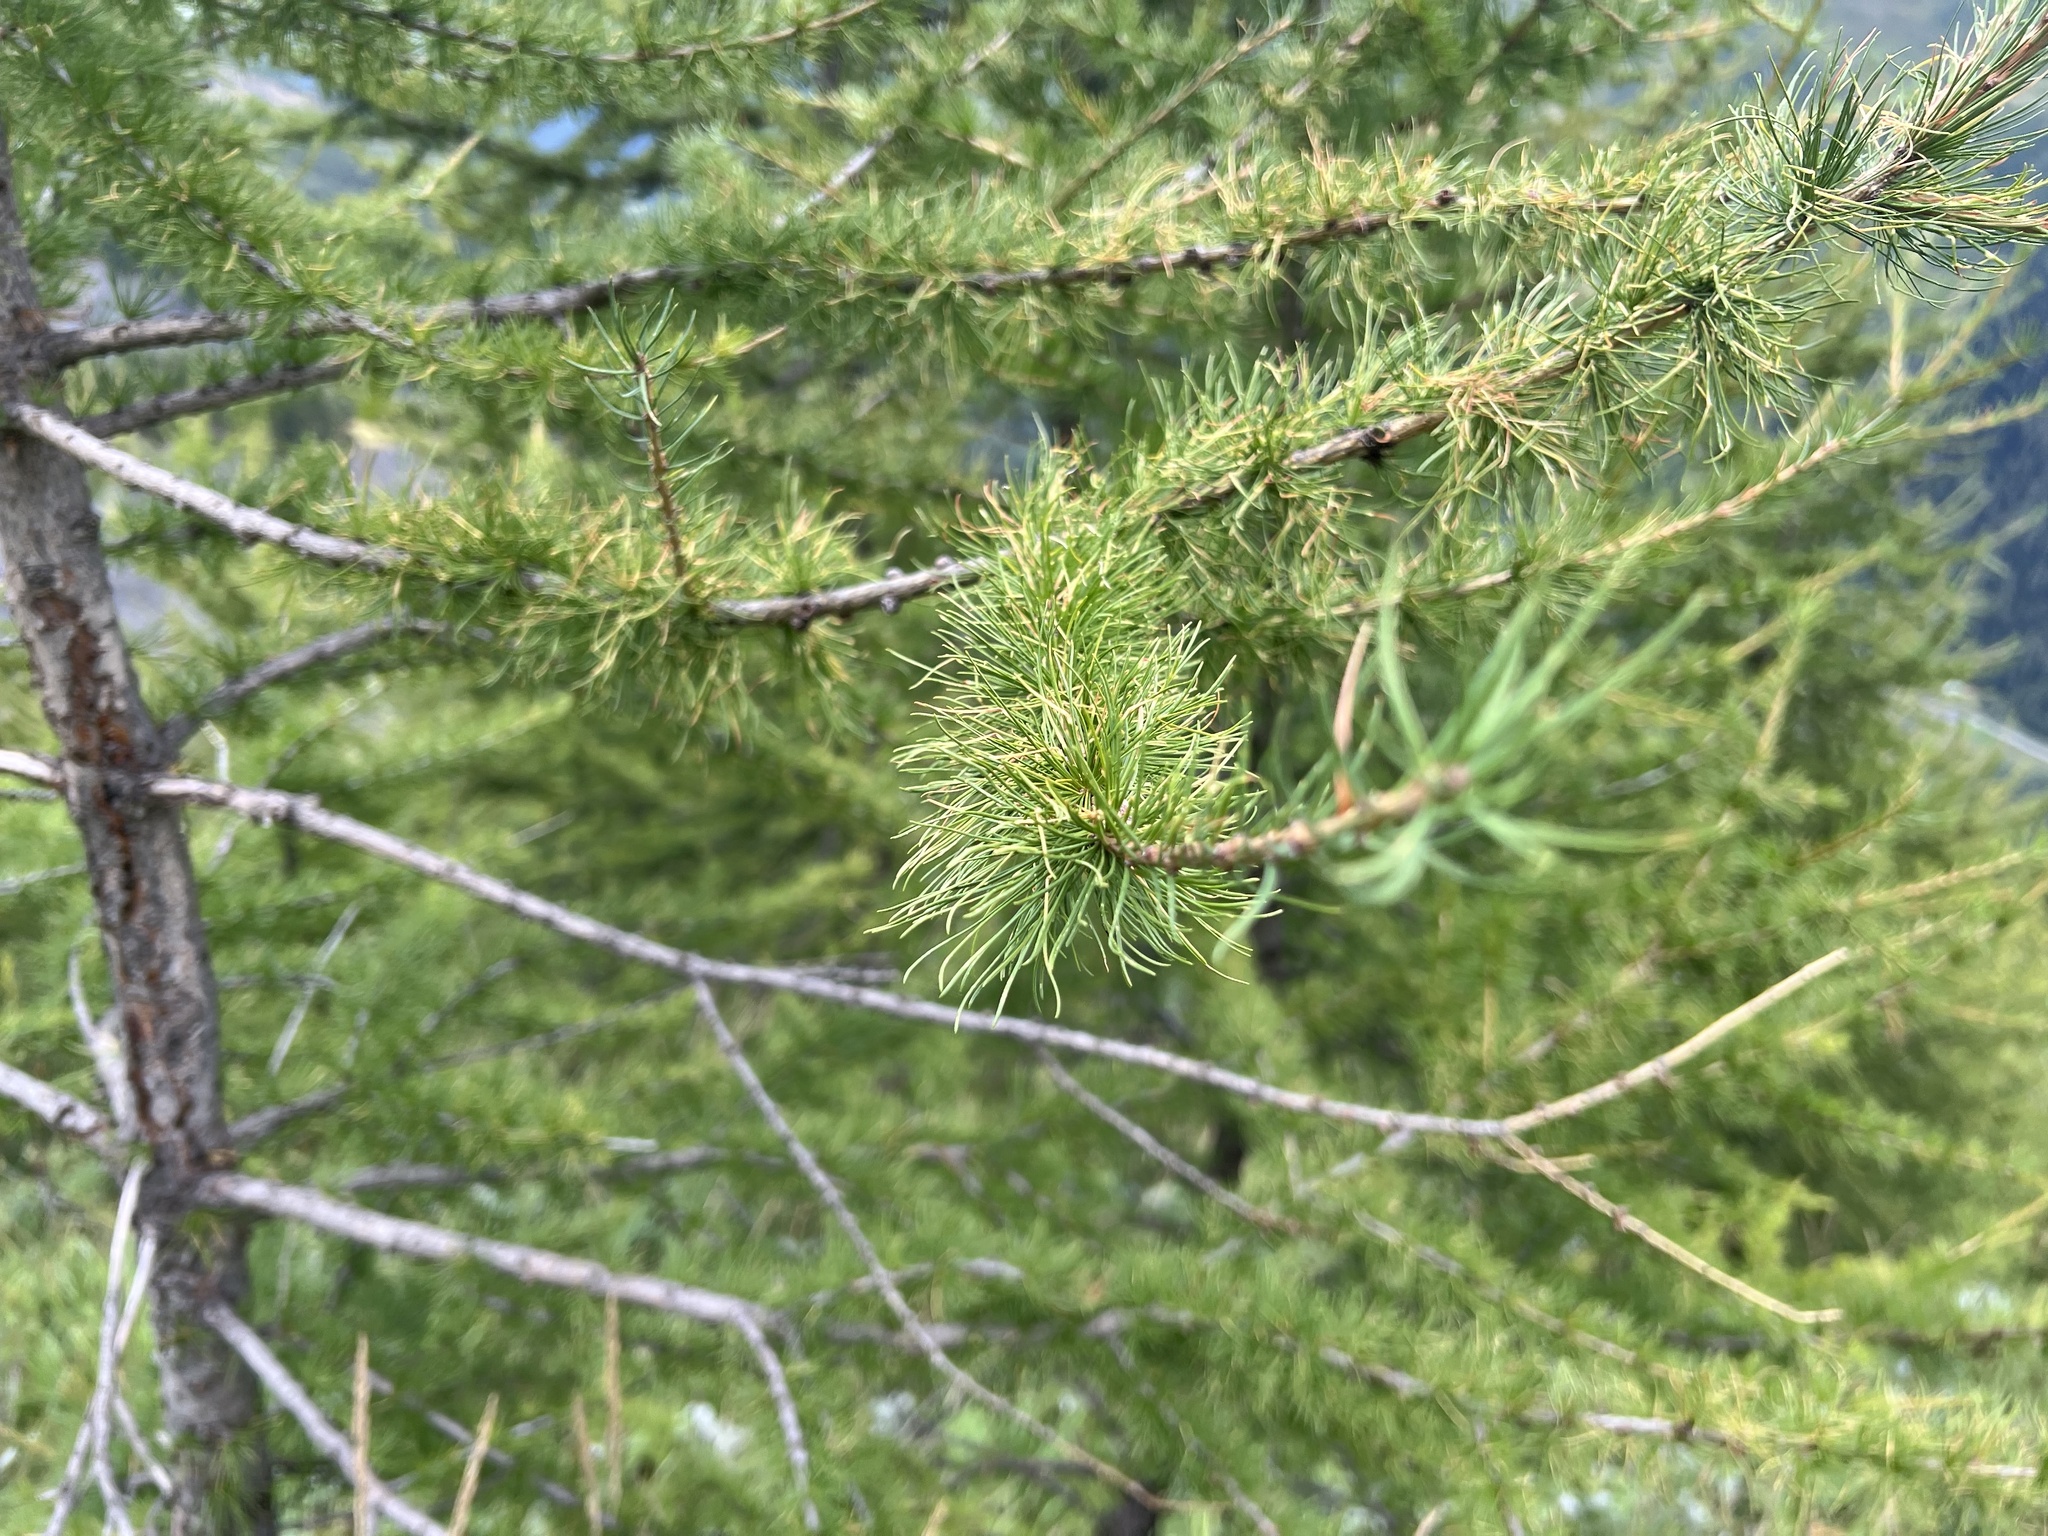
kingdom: Plantae
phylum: Tracheophyta
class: Pinopsida
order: Pinales
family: Pinaceae
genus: Larix
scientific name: Larix decidua
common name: European larch
